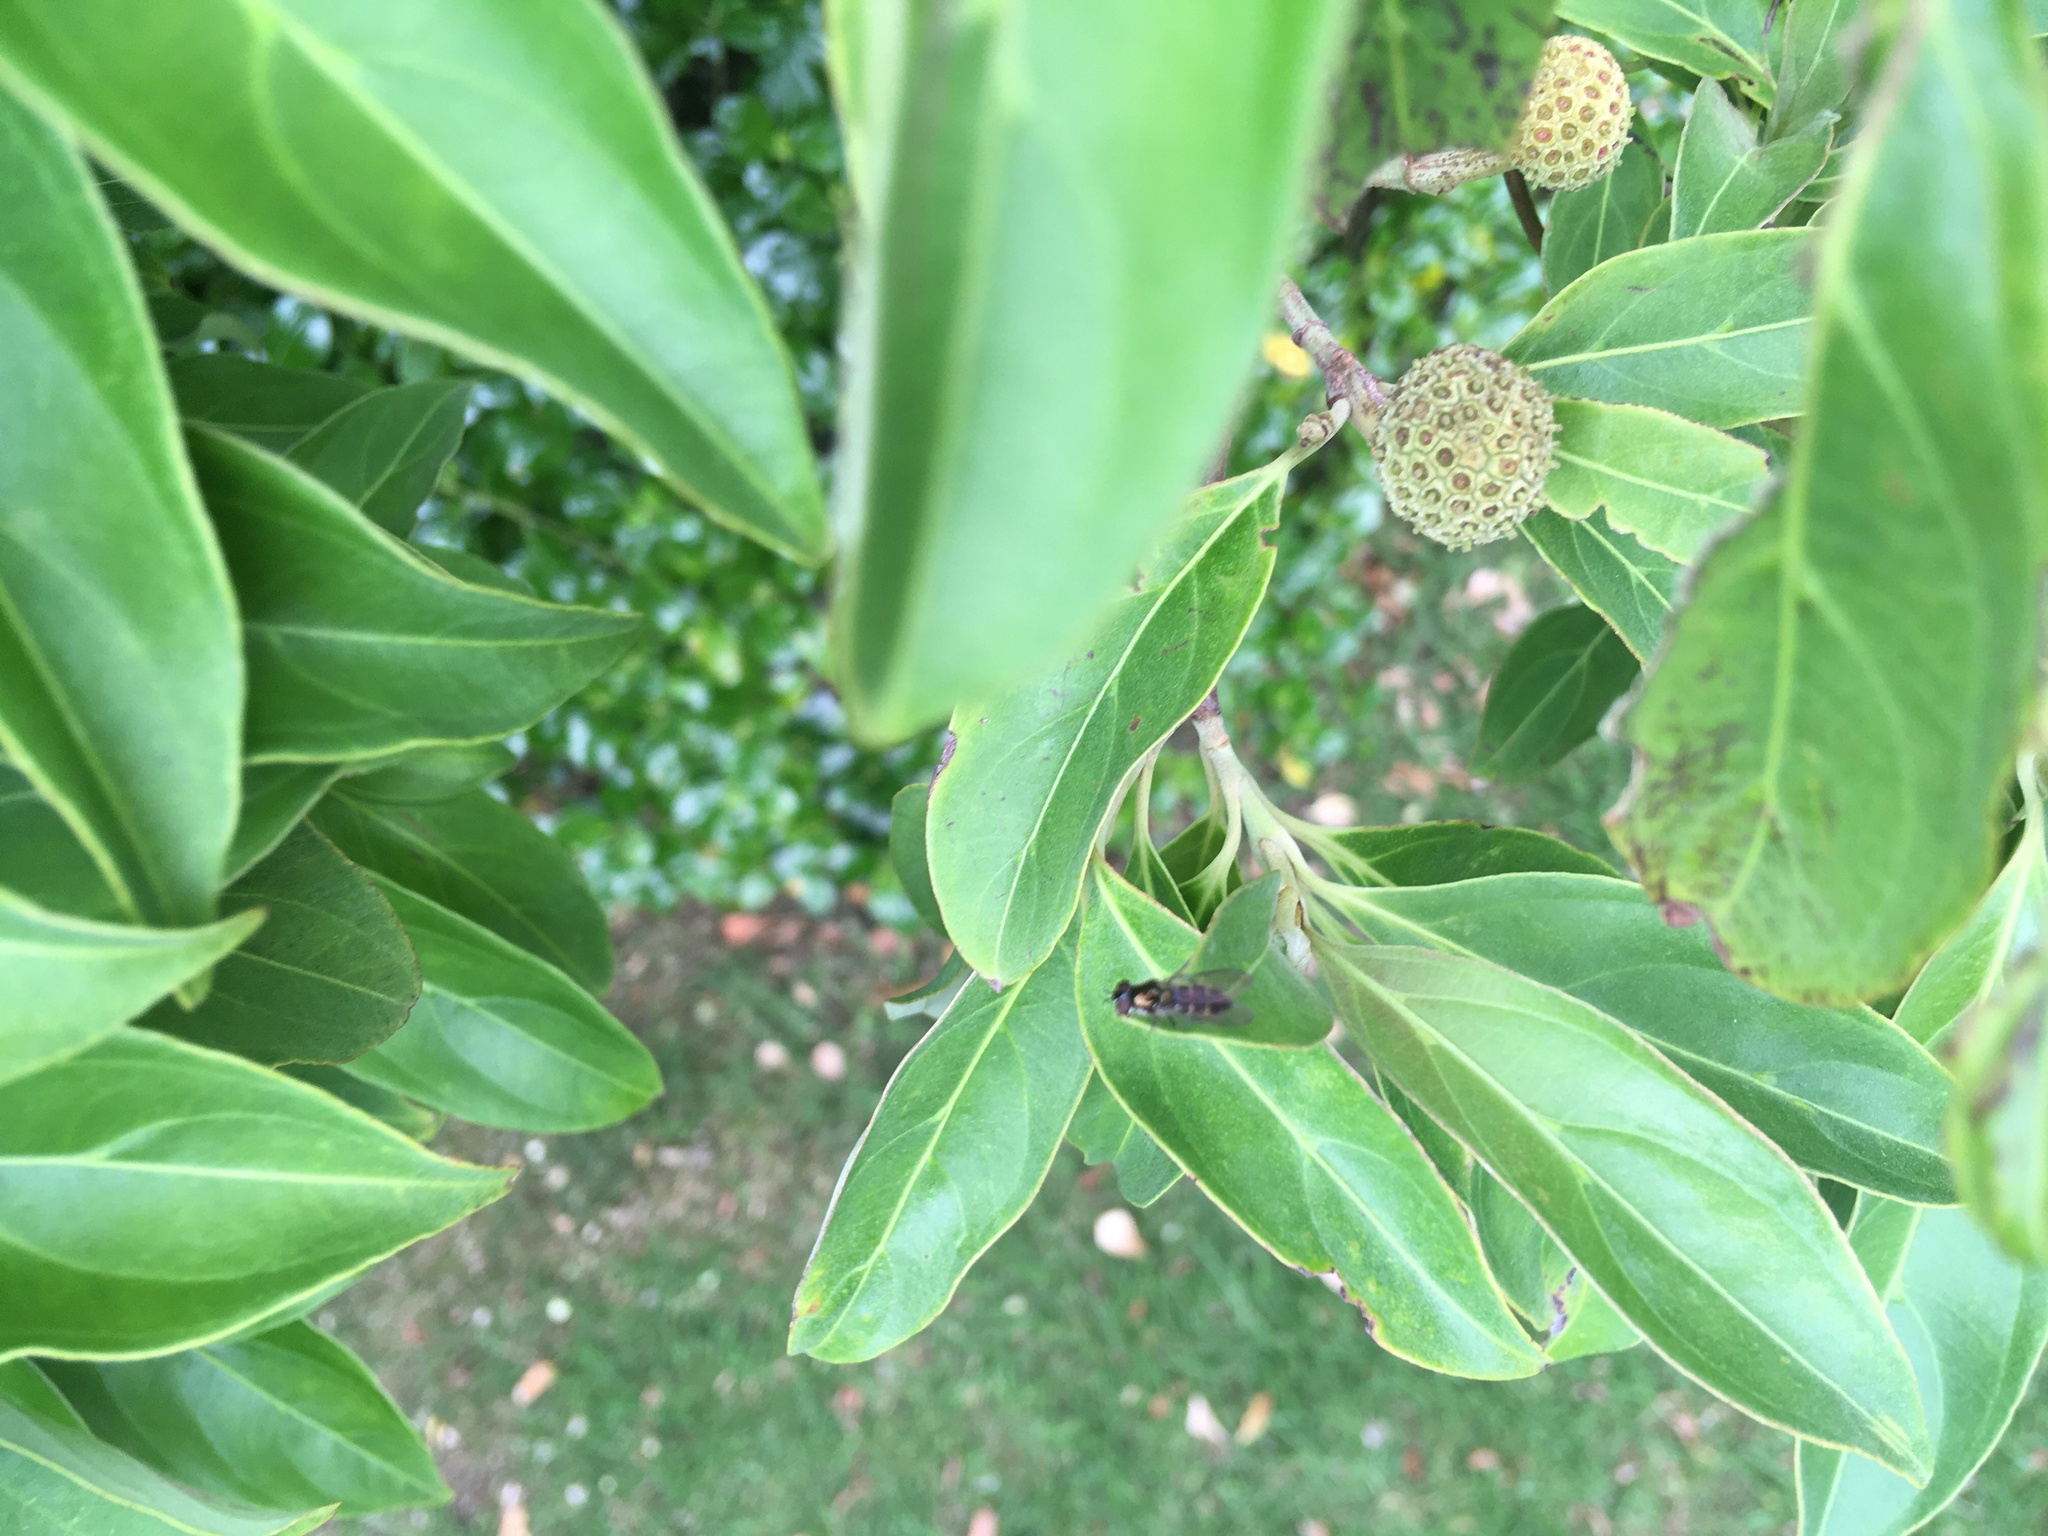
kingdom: Animalia
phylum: Arthropoda
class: Insecta
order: Diptera
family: Syrphidae
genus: Melangyna
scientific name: Melangyna novaezelandiae
